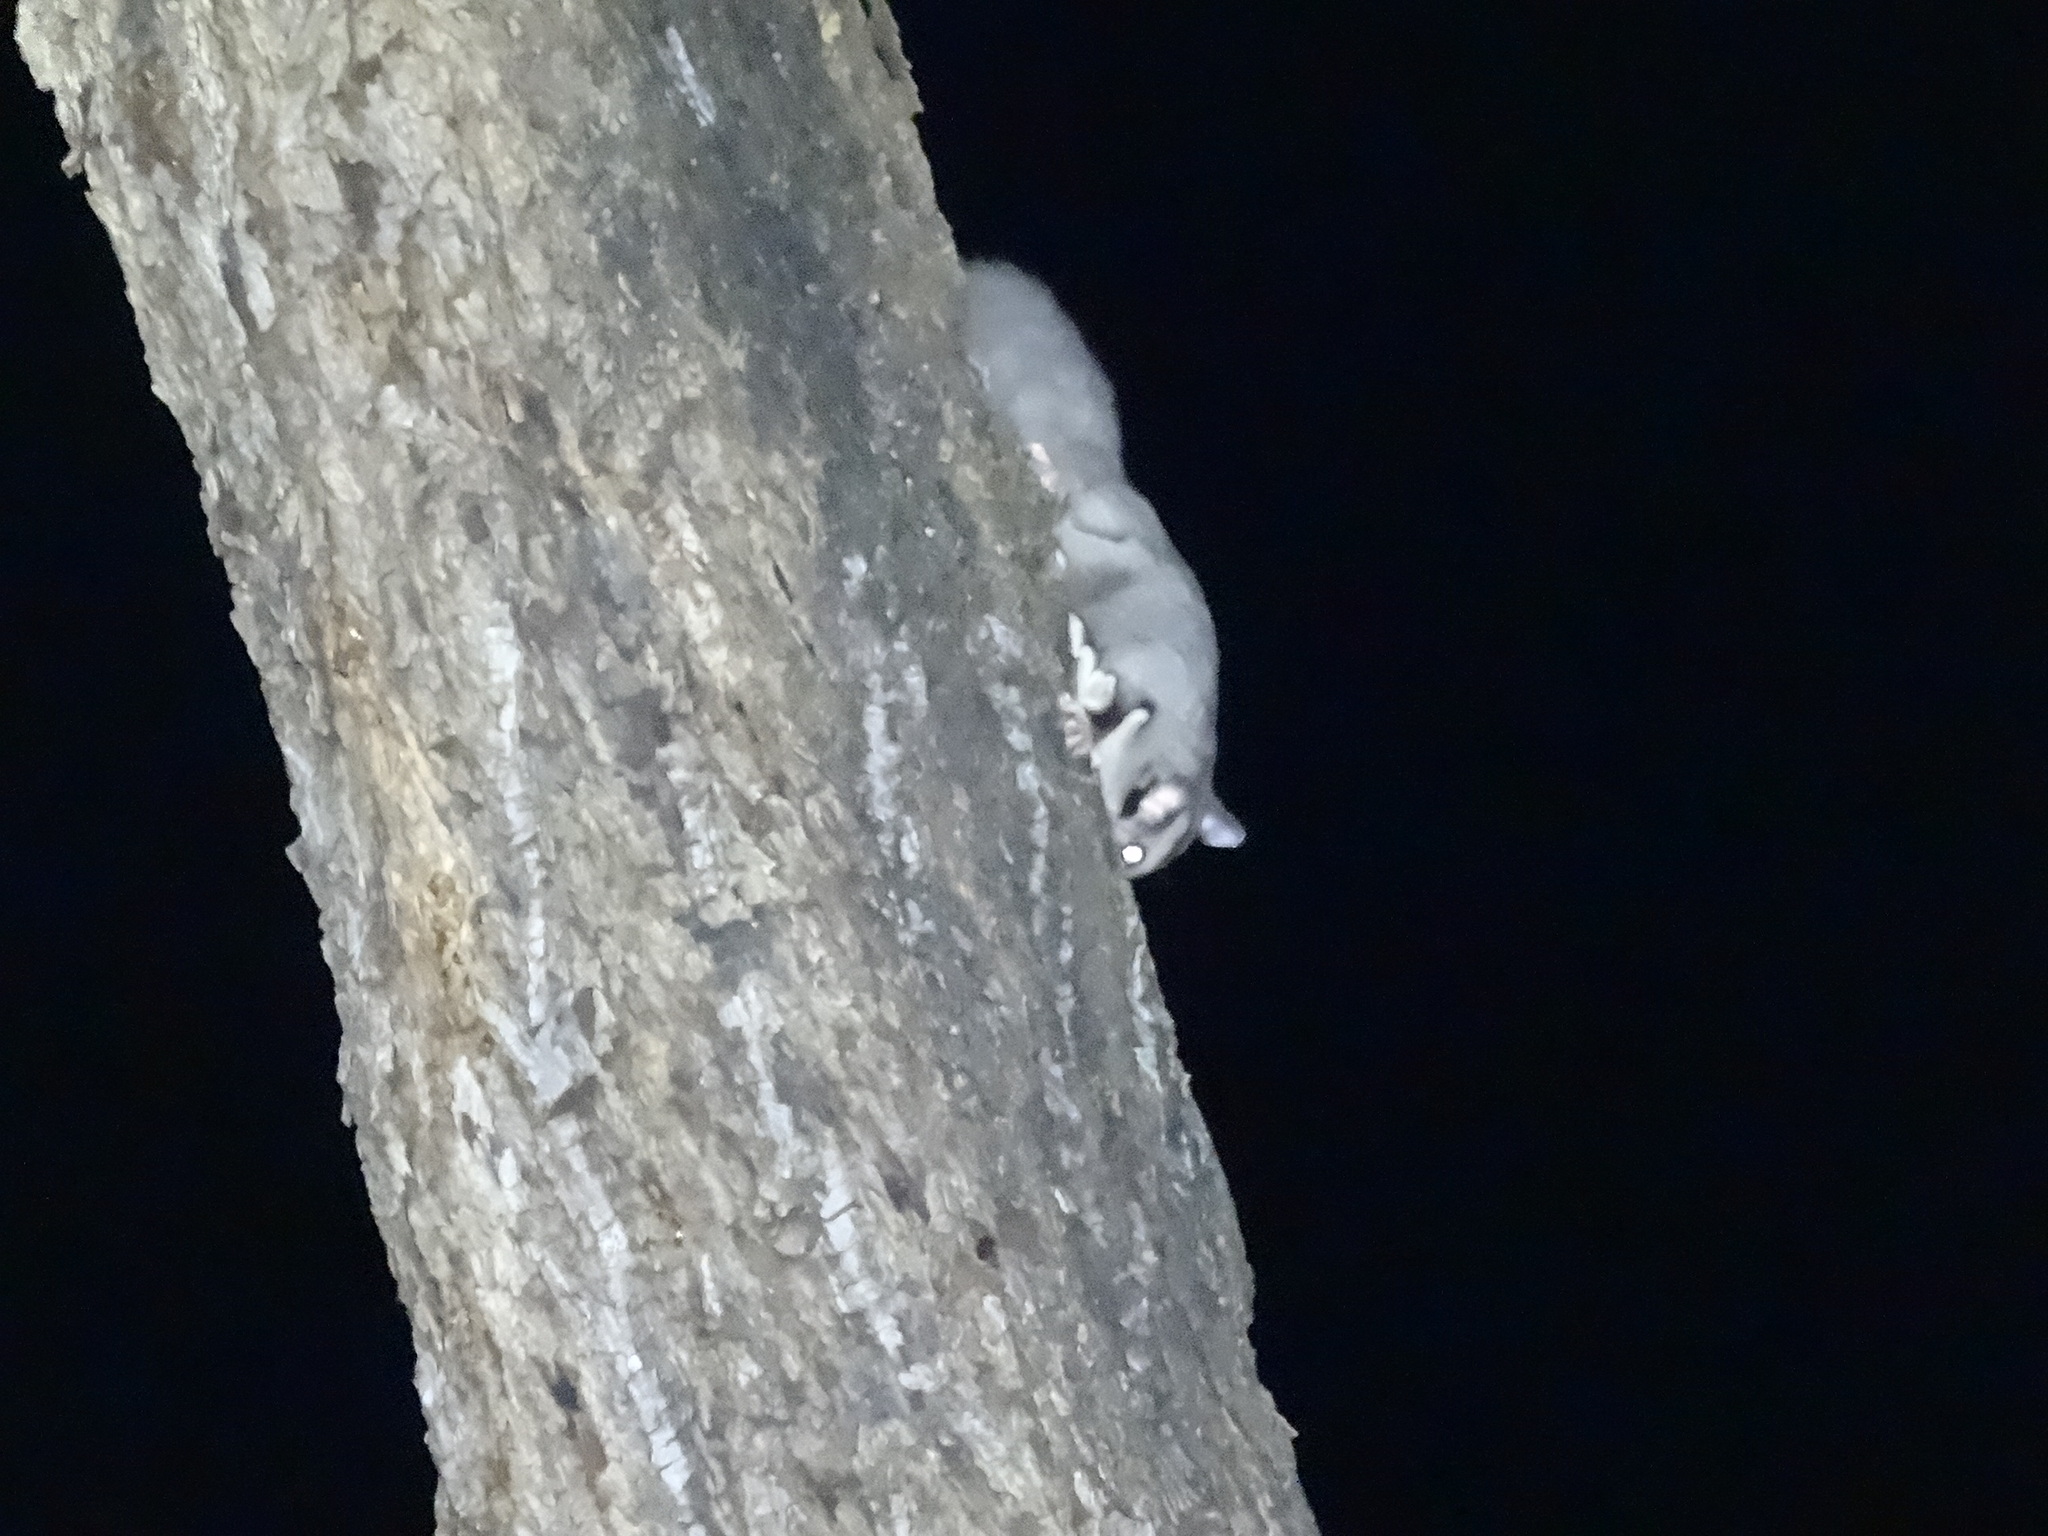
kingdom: Animalia
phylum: Chordata
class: Mammalia
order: Diprotodontia
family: Petauridae
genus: Petaurus
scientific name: Petaurus norfolcensis
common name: Squirrel glider
